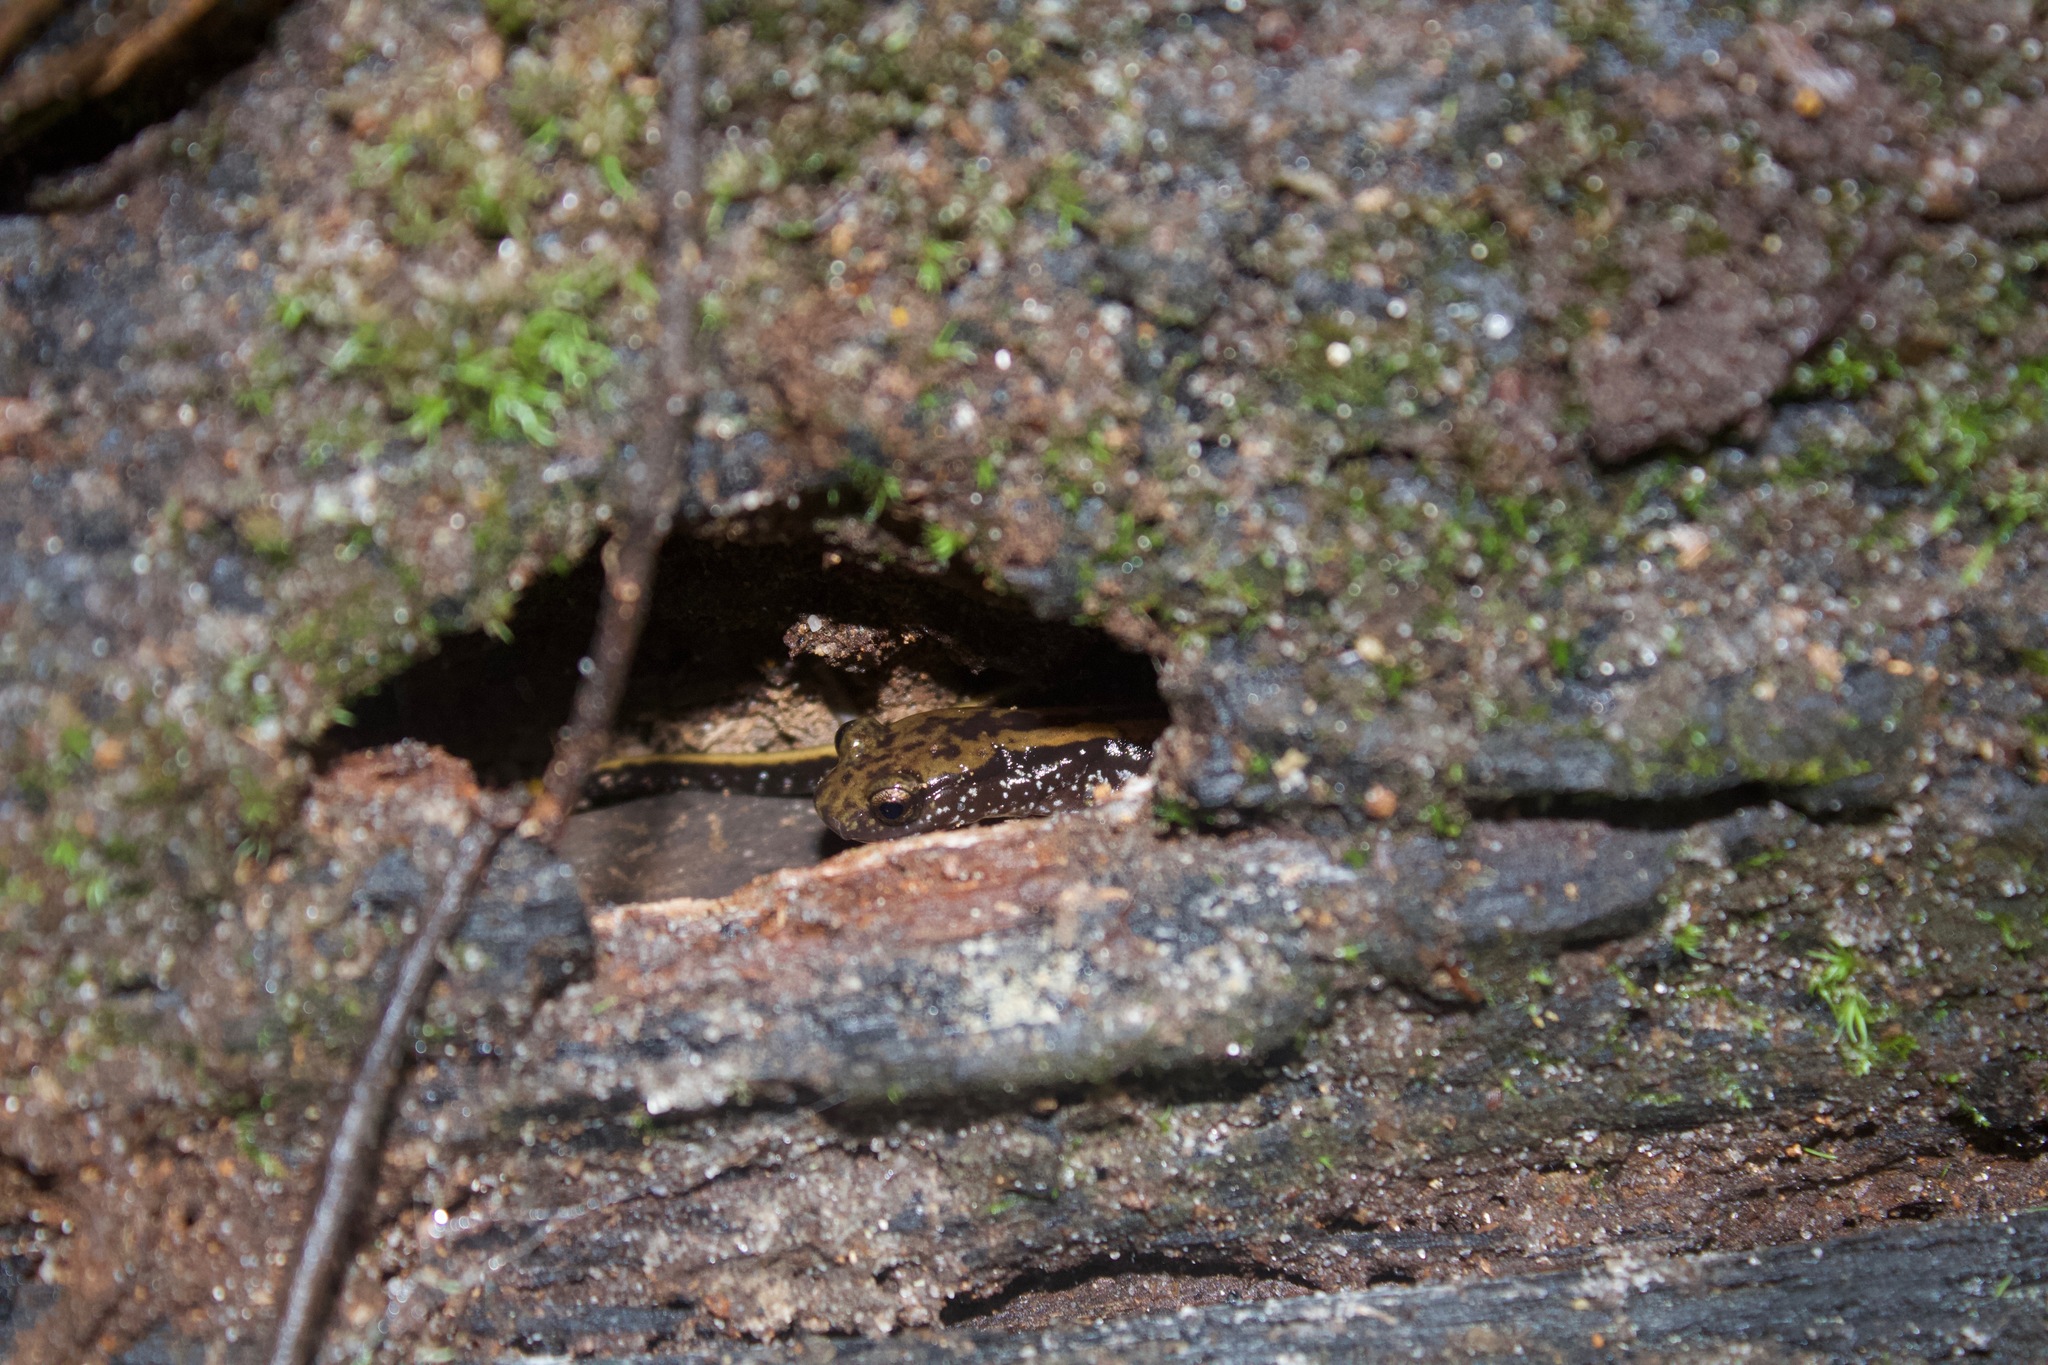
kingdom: Animalia
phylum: Chordata
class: Amphibia
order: Caudata
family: Plethodontidae
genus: Eurycea
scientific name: Eurycea guttolineata
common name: Three-lined salamander
